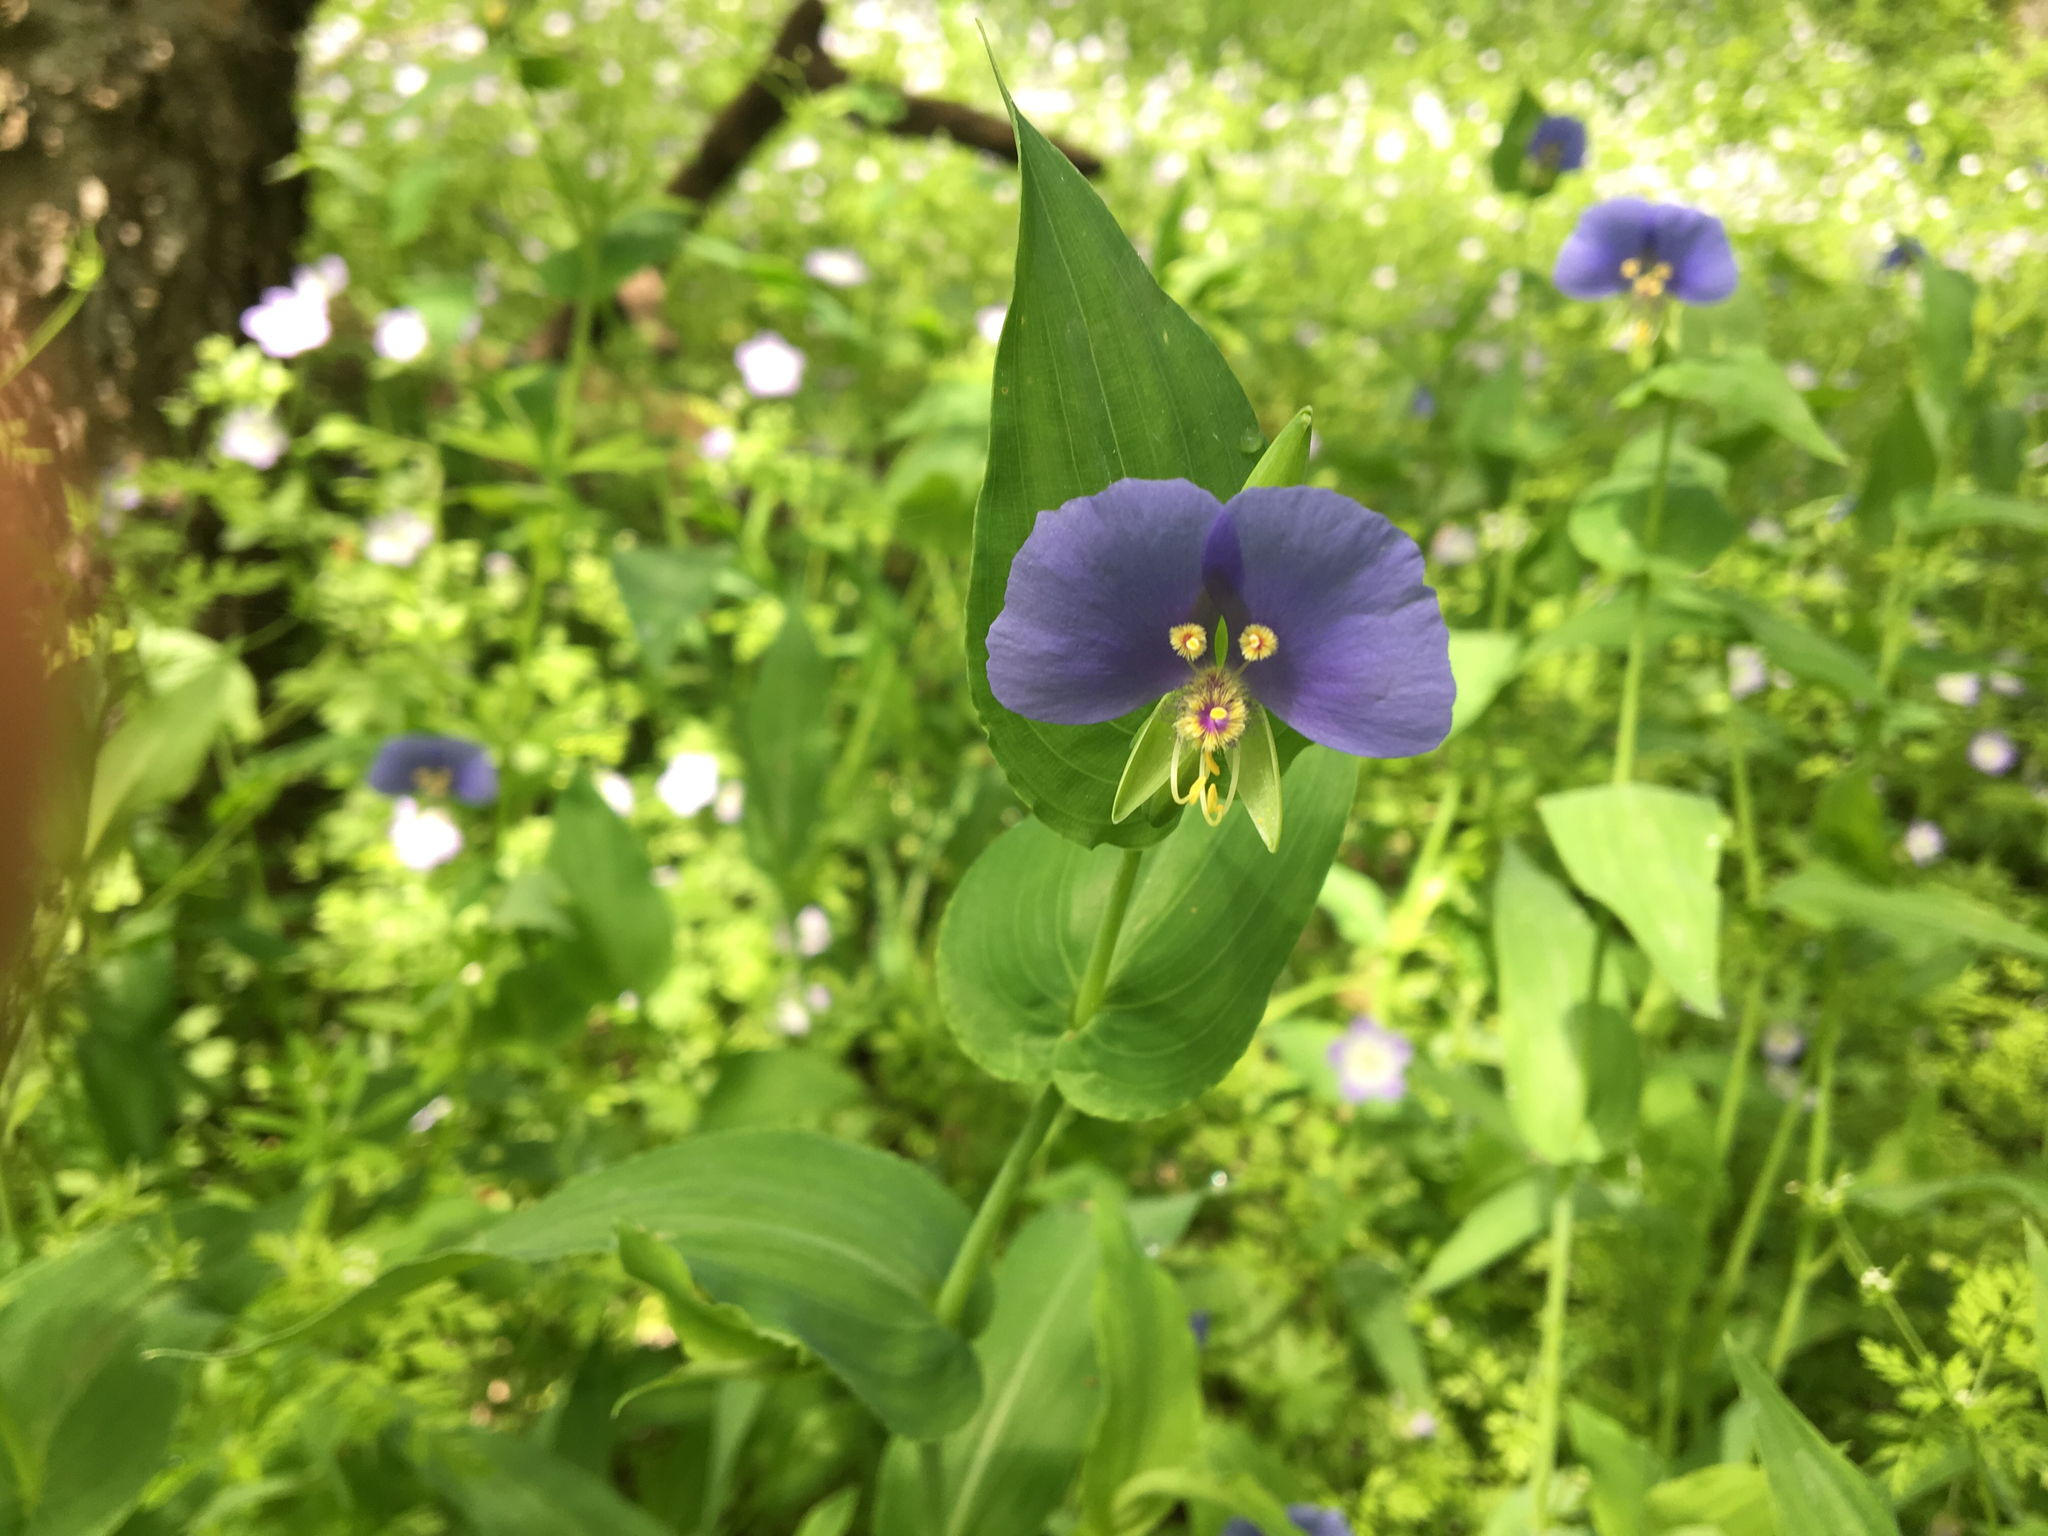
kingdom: Plantae
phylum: Tracheophyta
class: Liliopsida
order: Commelinales
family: Commelinaceae
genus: Tinantia
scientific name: Tinantia anomala
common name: False dayflower
